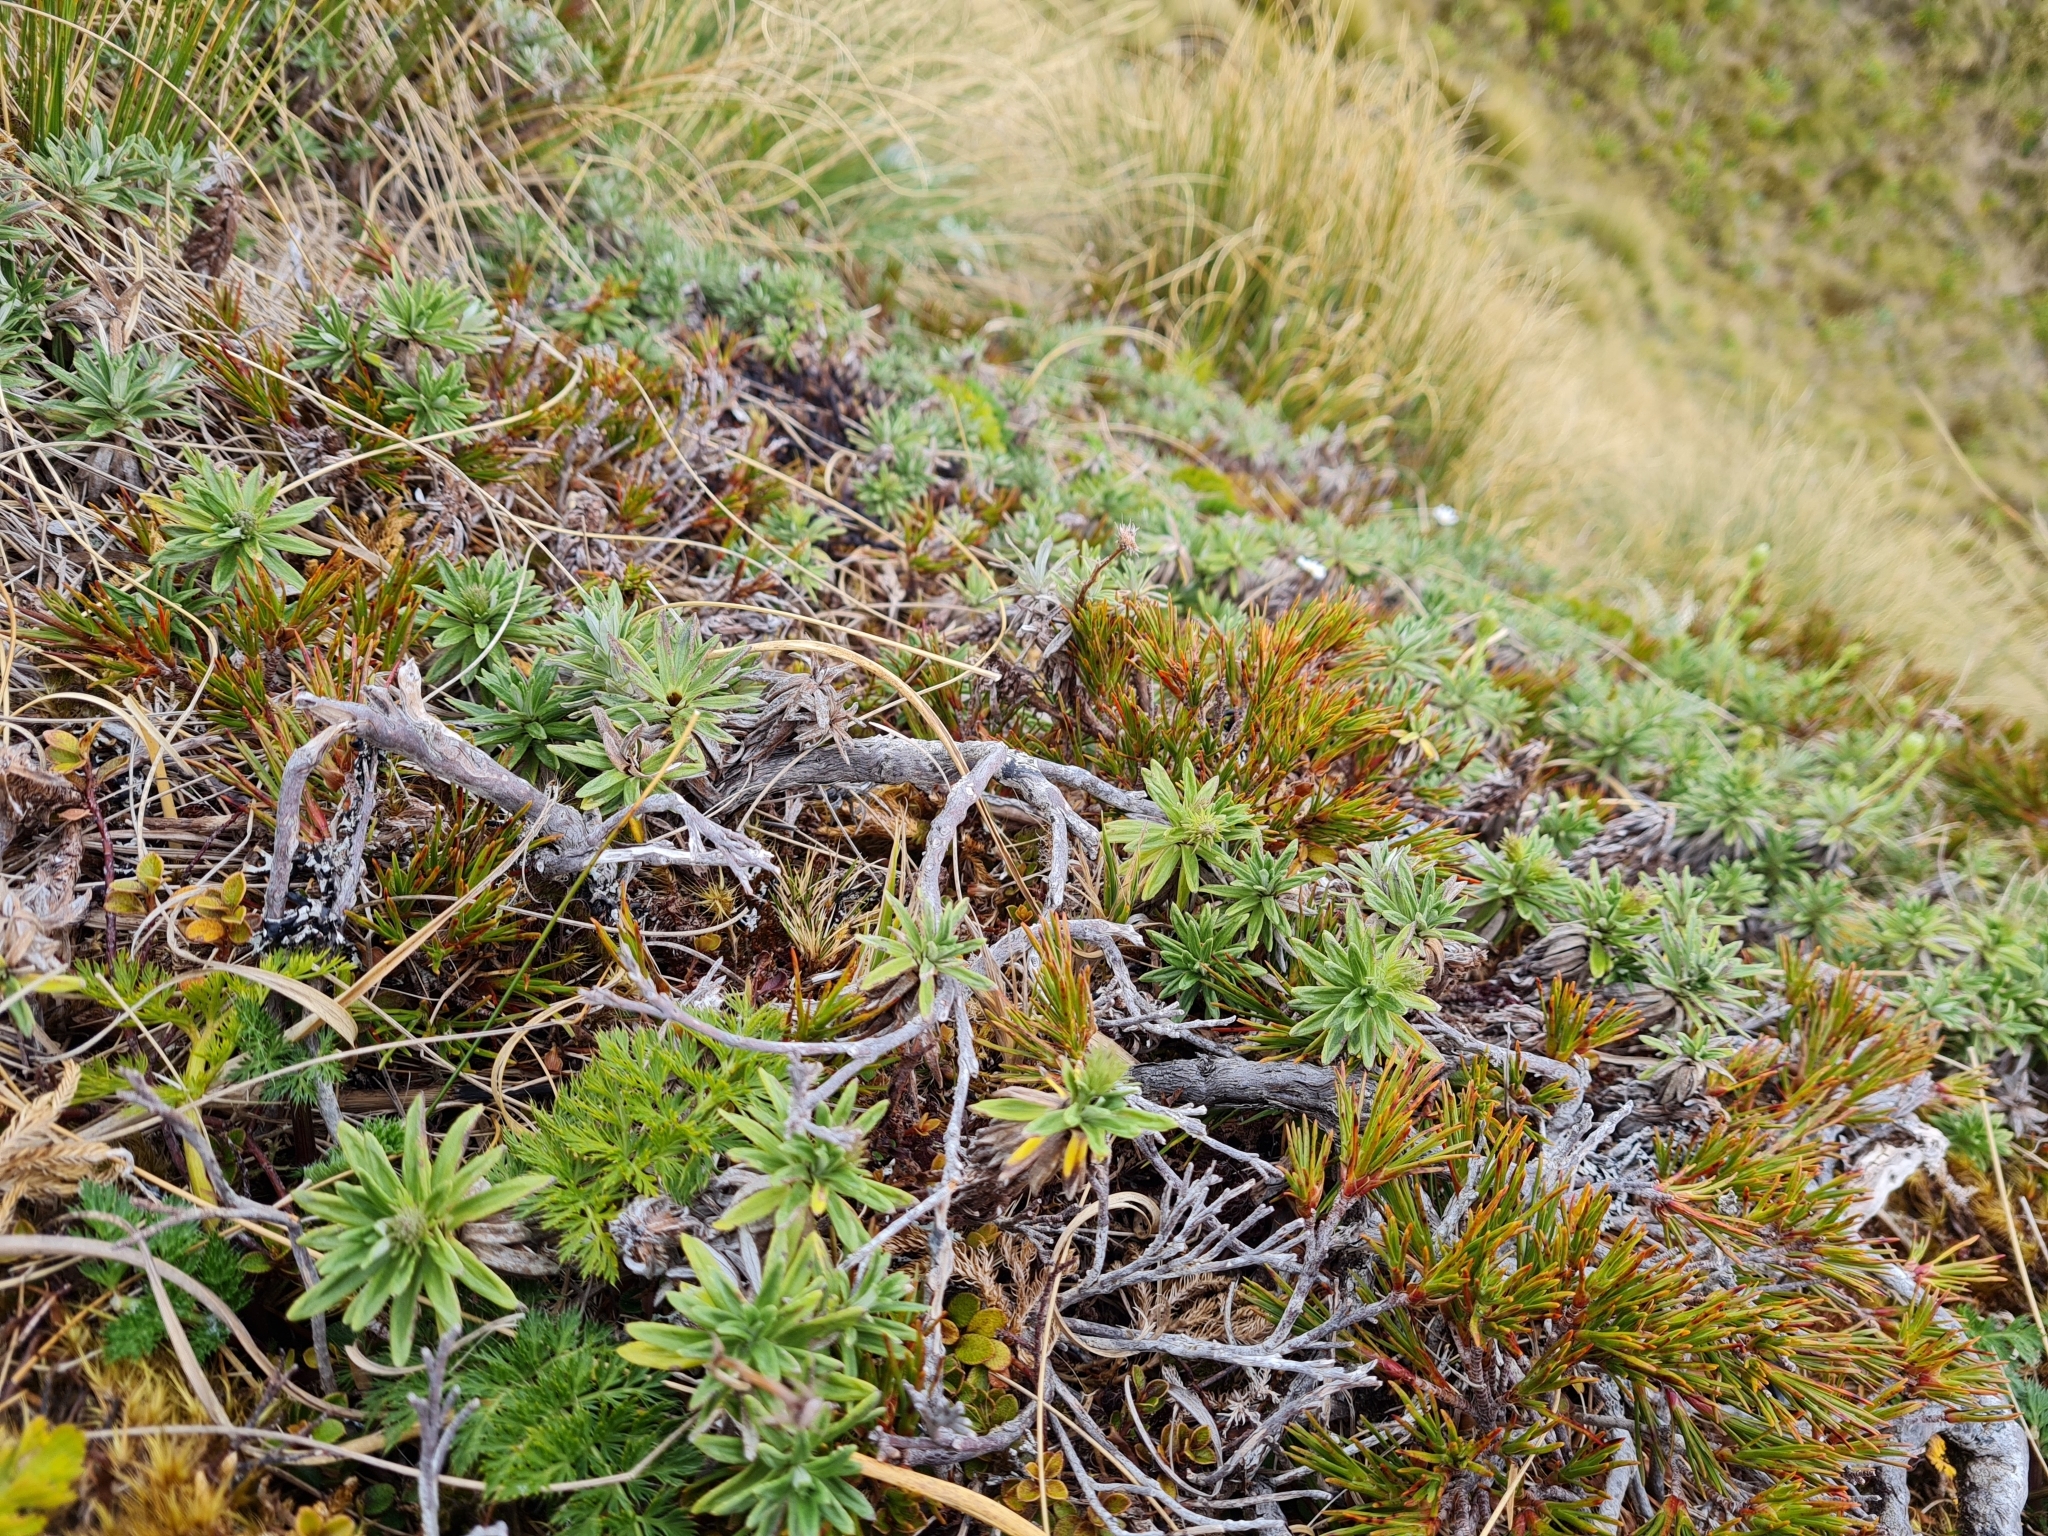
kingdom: Plantae
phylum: Tracheophyta
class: Magnoliopsida
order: Asterales
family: Asteraceae
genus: Celmisia
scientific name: Celmisia walkeri
